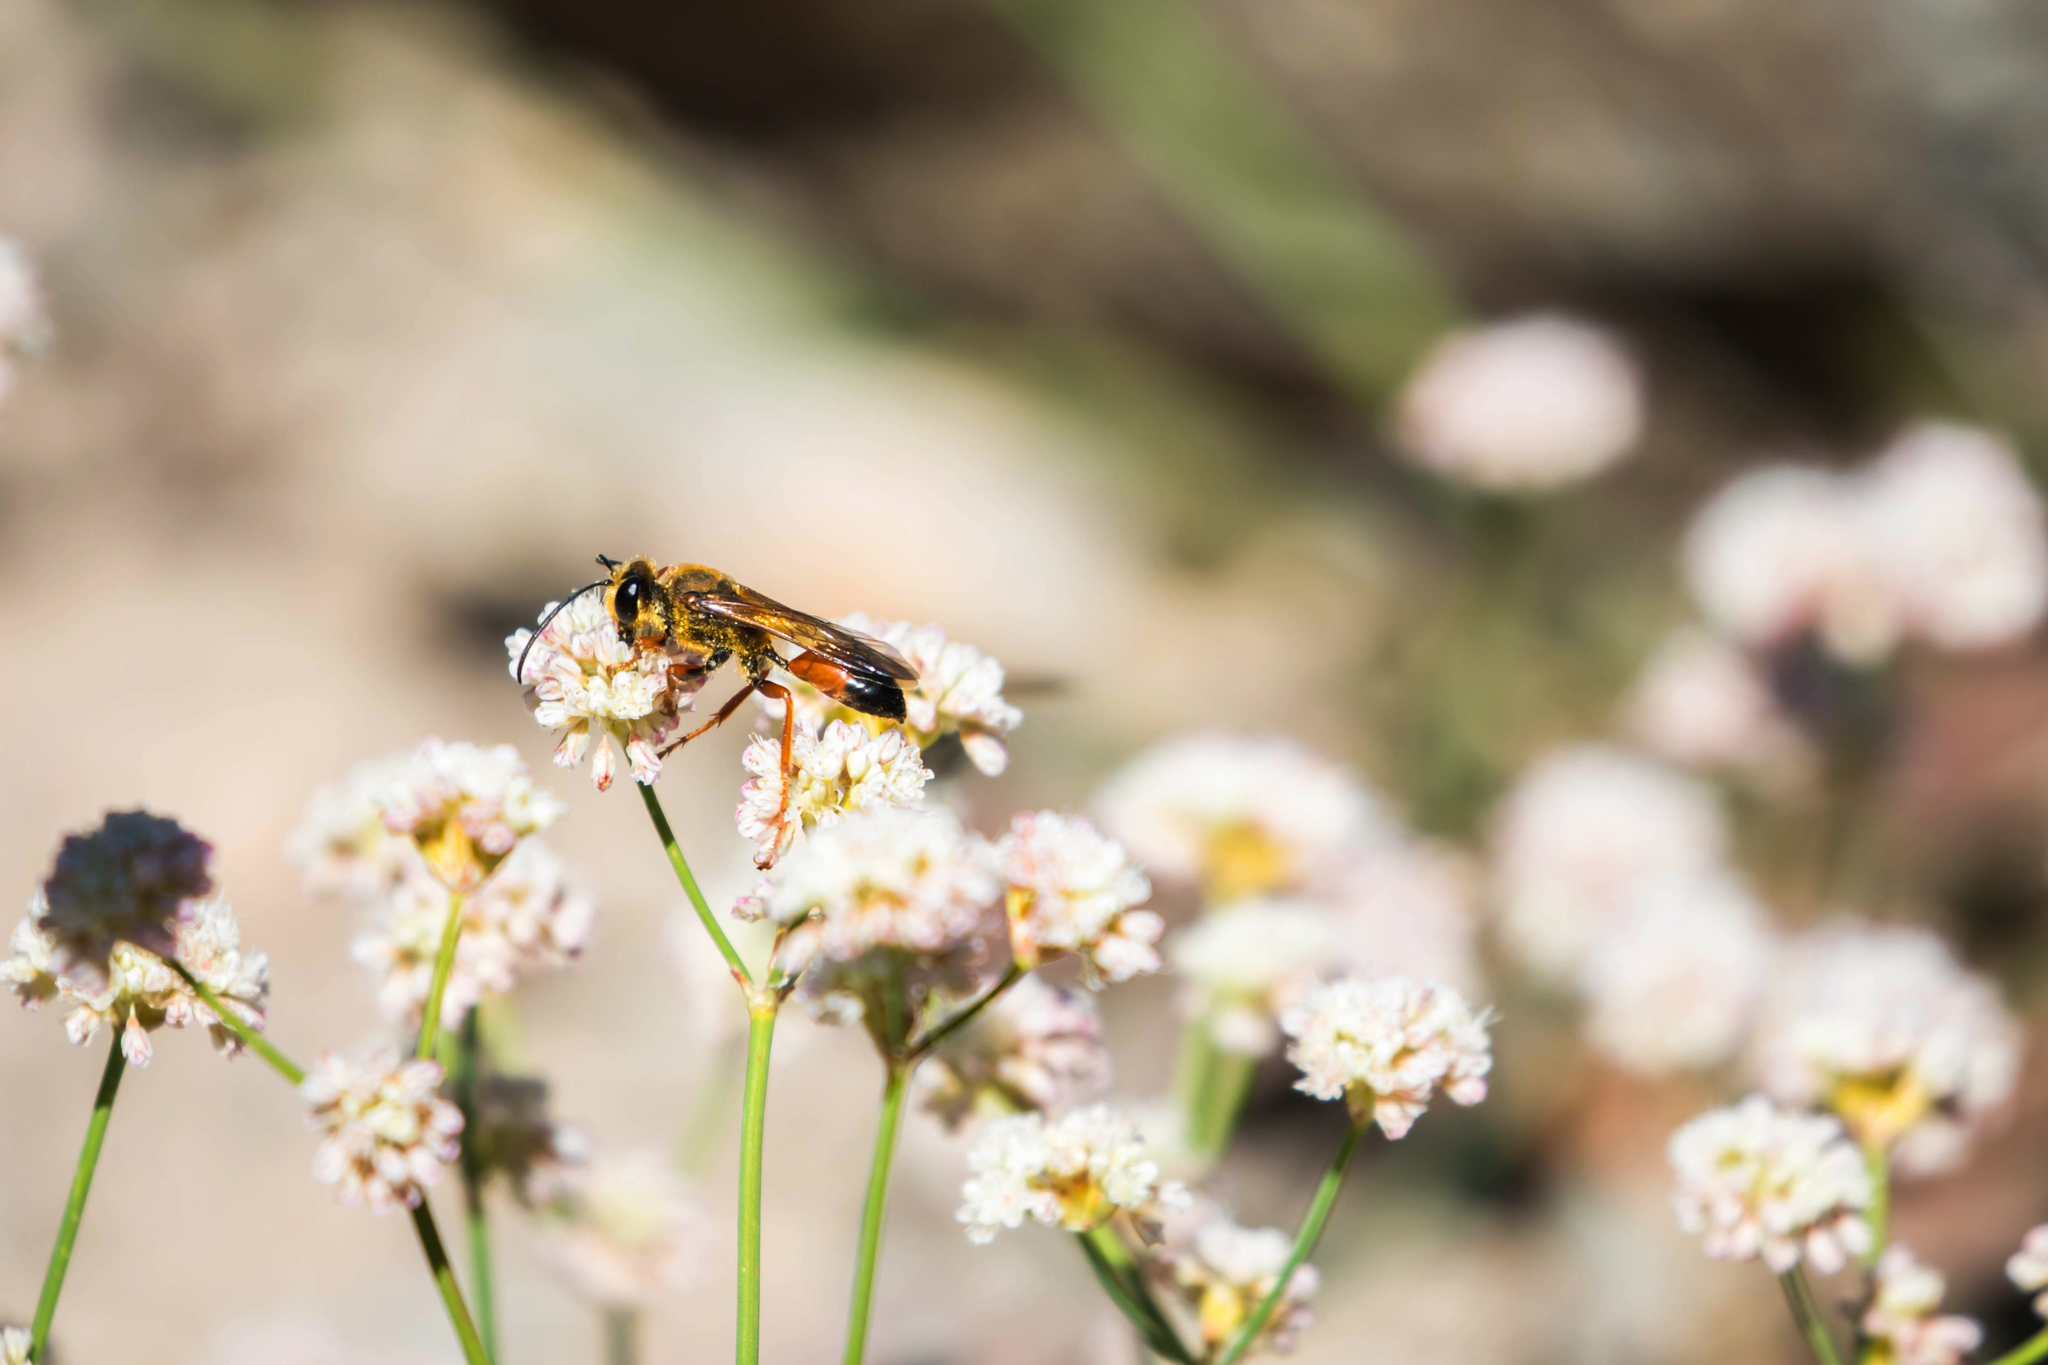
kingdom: Animalia
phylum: Arthropoda
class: Insecta
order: Hymenoptera
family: Sphecidae
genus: Sphex
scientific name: Sphex ichneumoneus
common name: Great golden digger wasp
